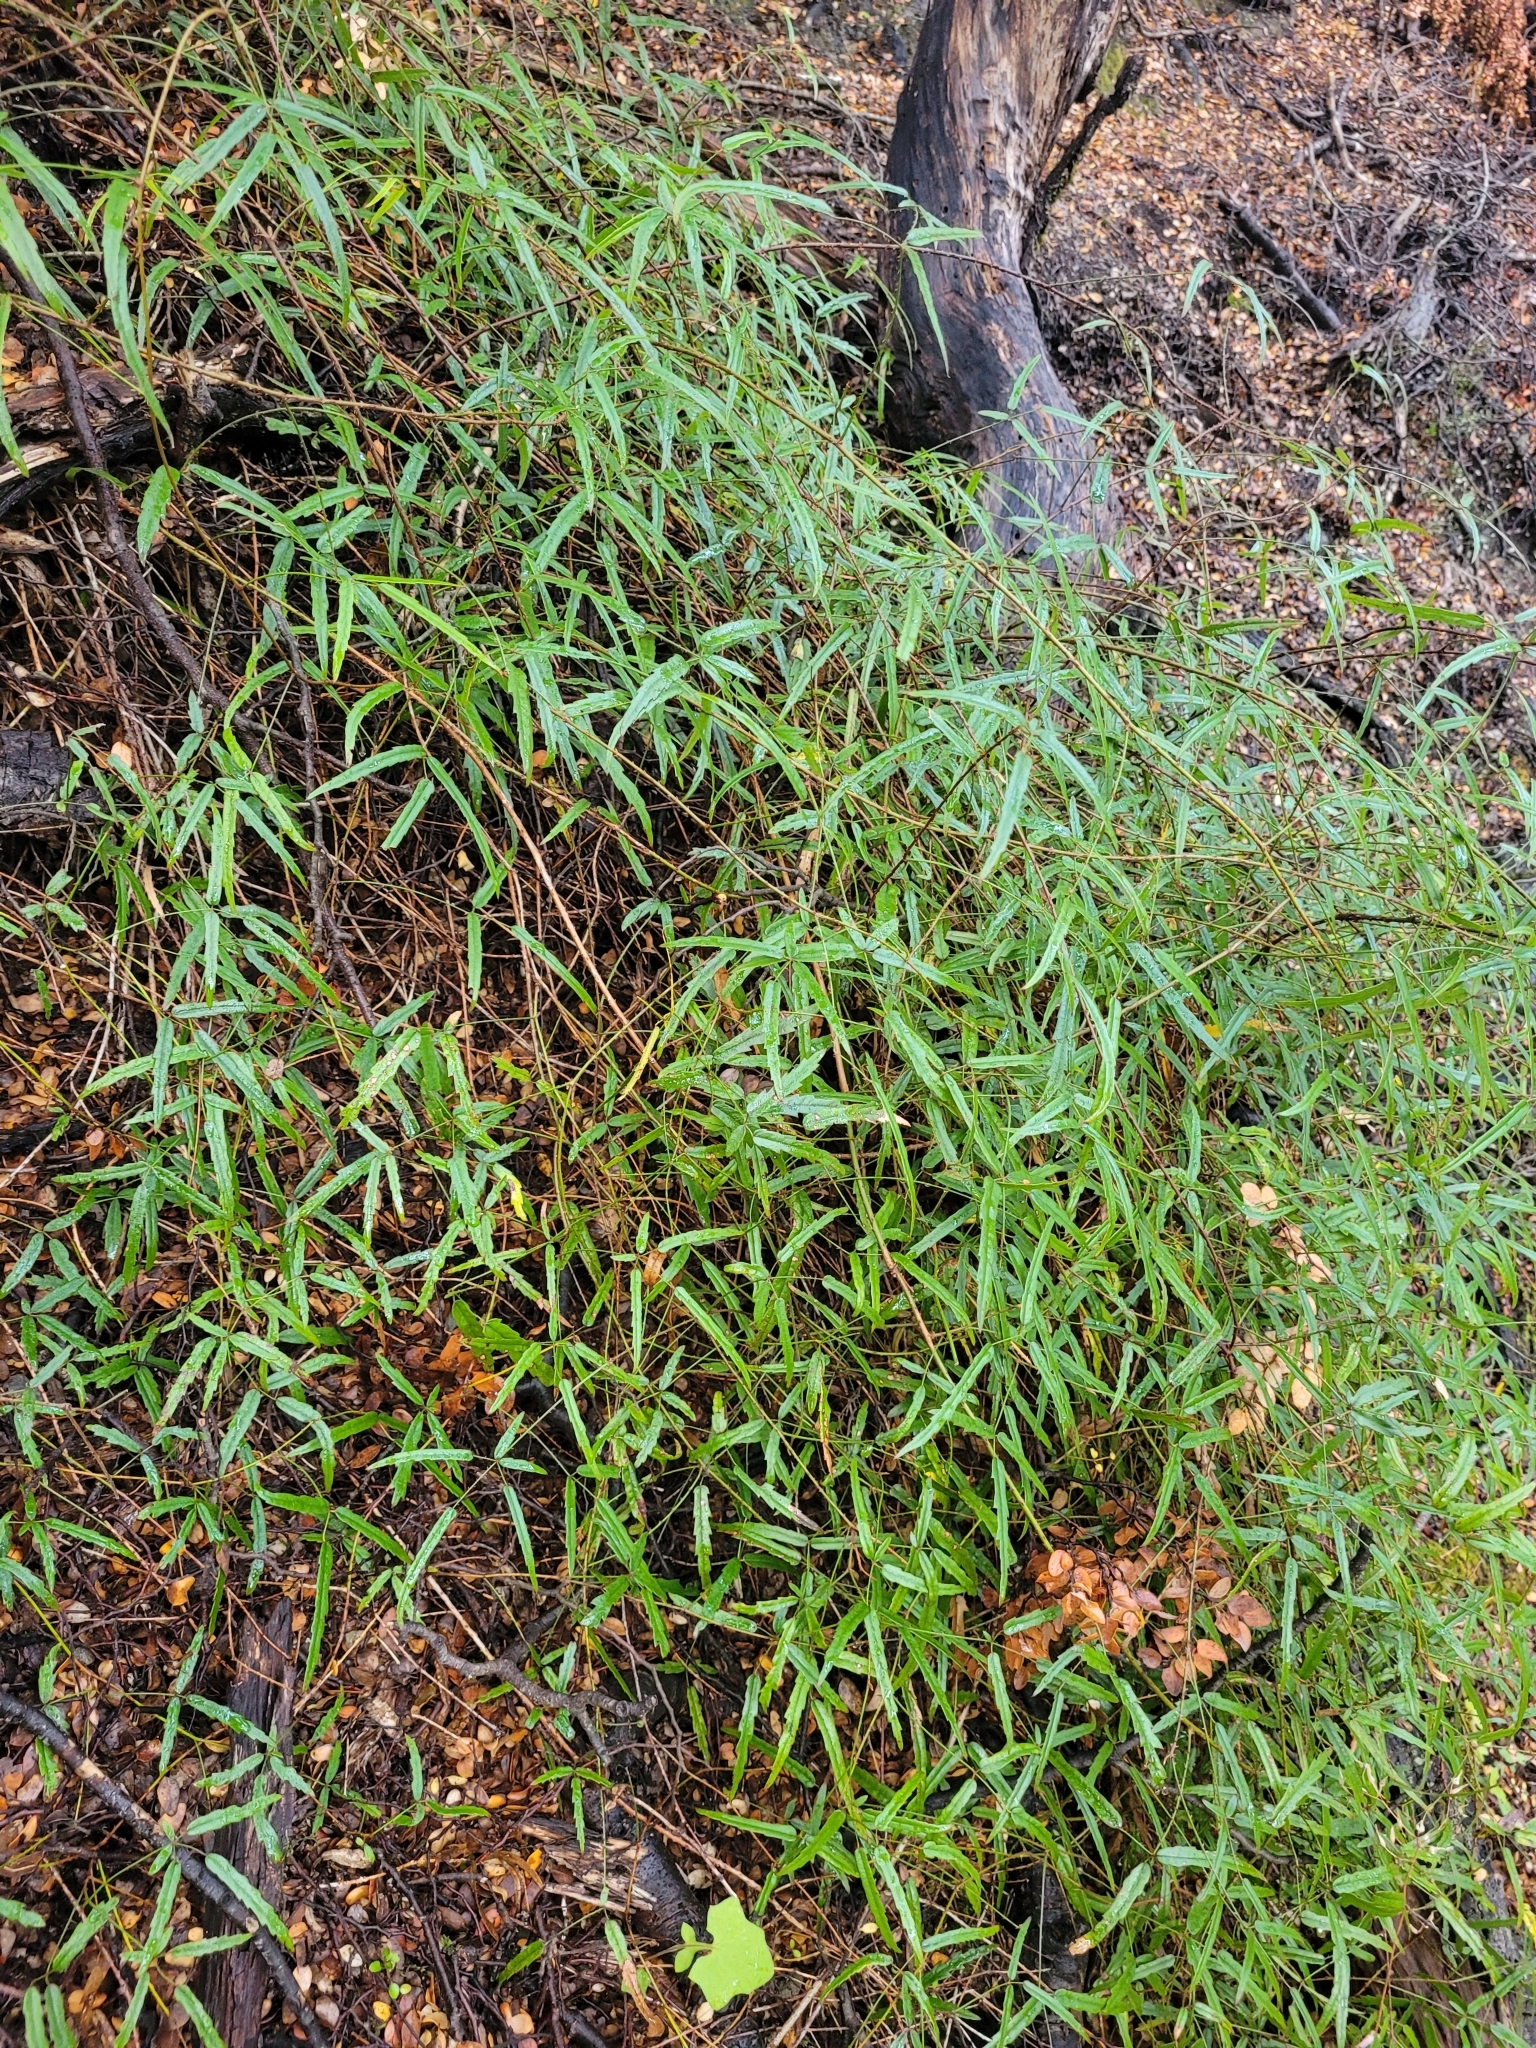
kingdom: Plantae
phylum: Tracheophyta
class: Magnoliopsida
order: Rosales
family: Rosaceae
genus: Rubus
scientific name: Rubus schmidelioides
